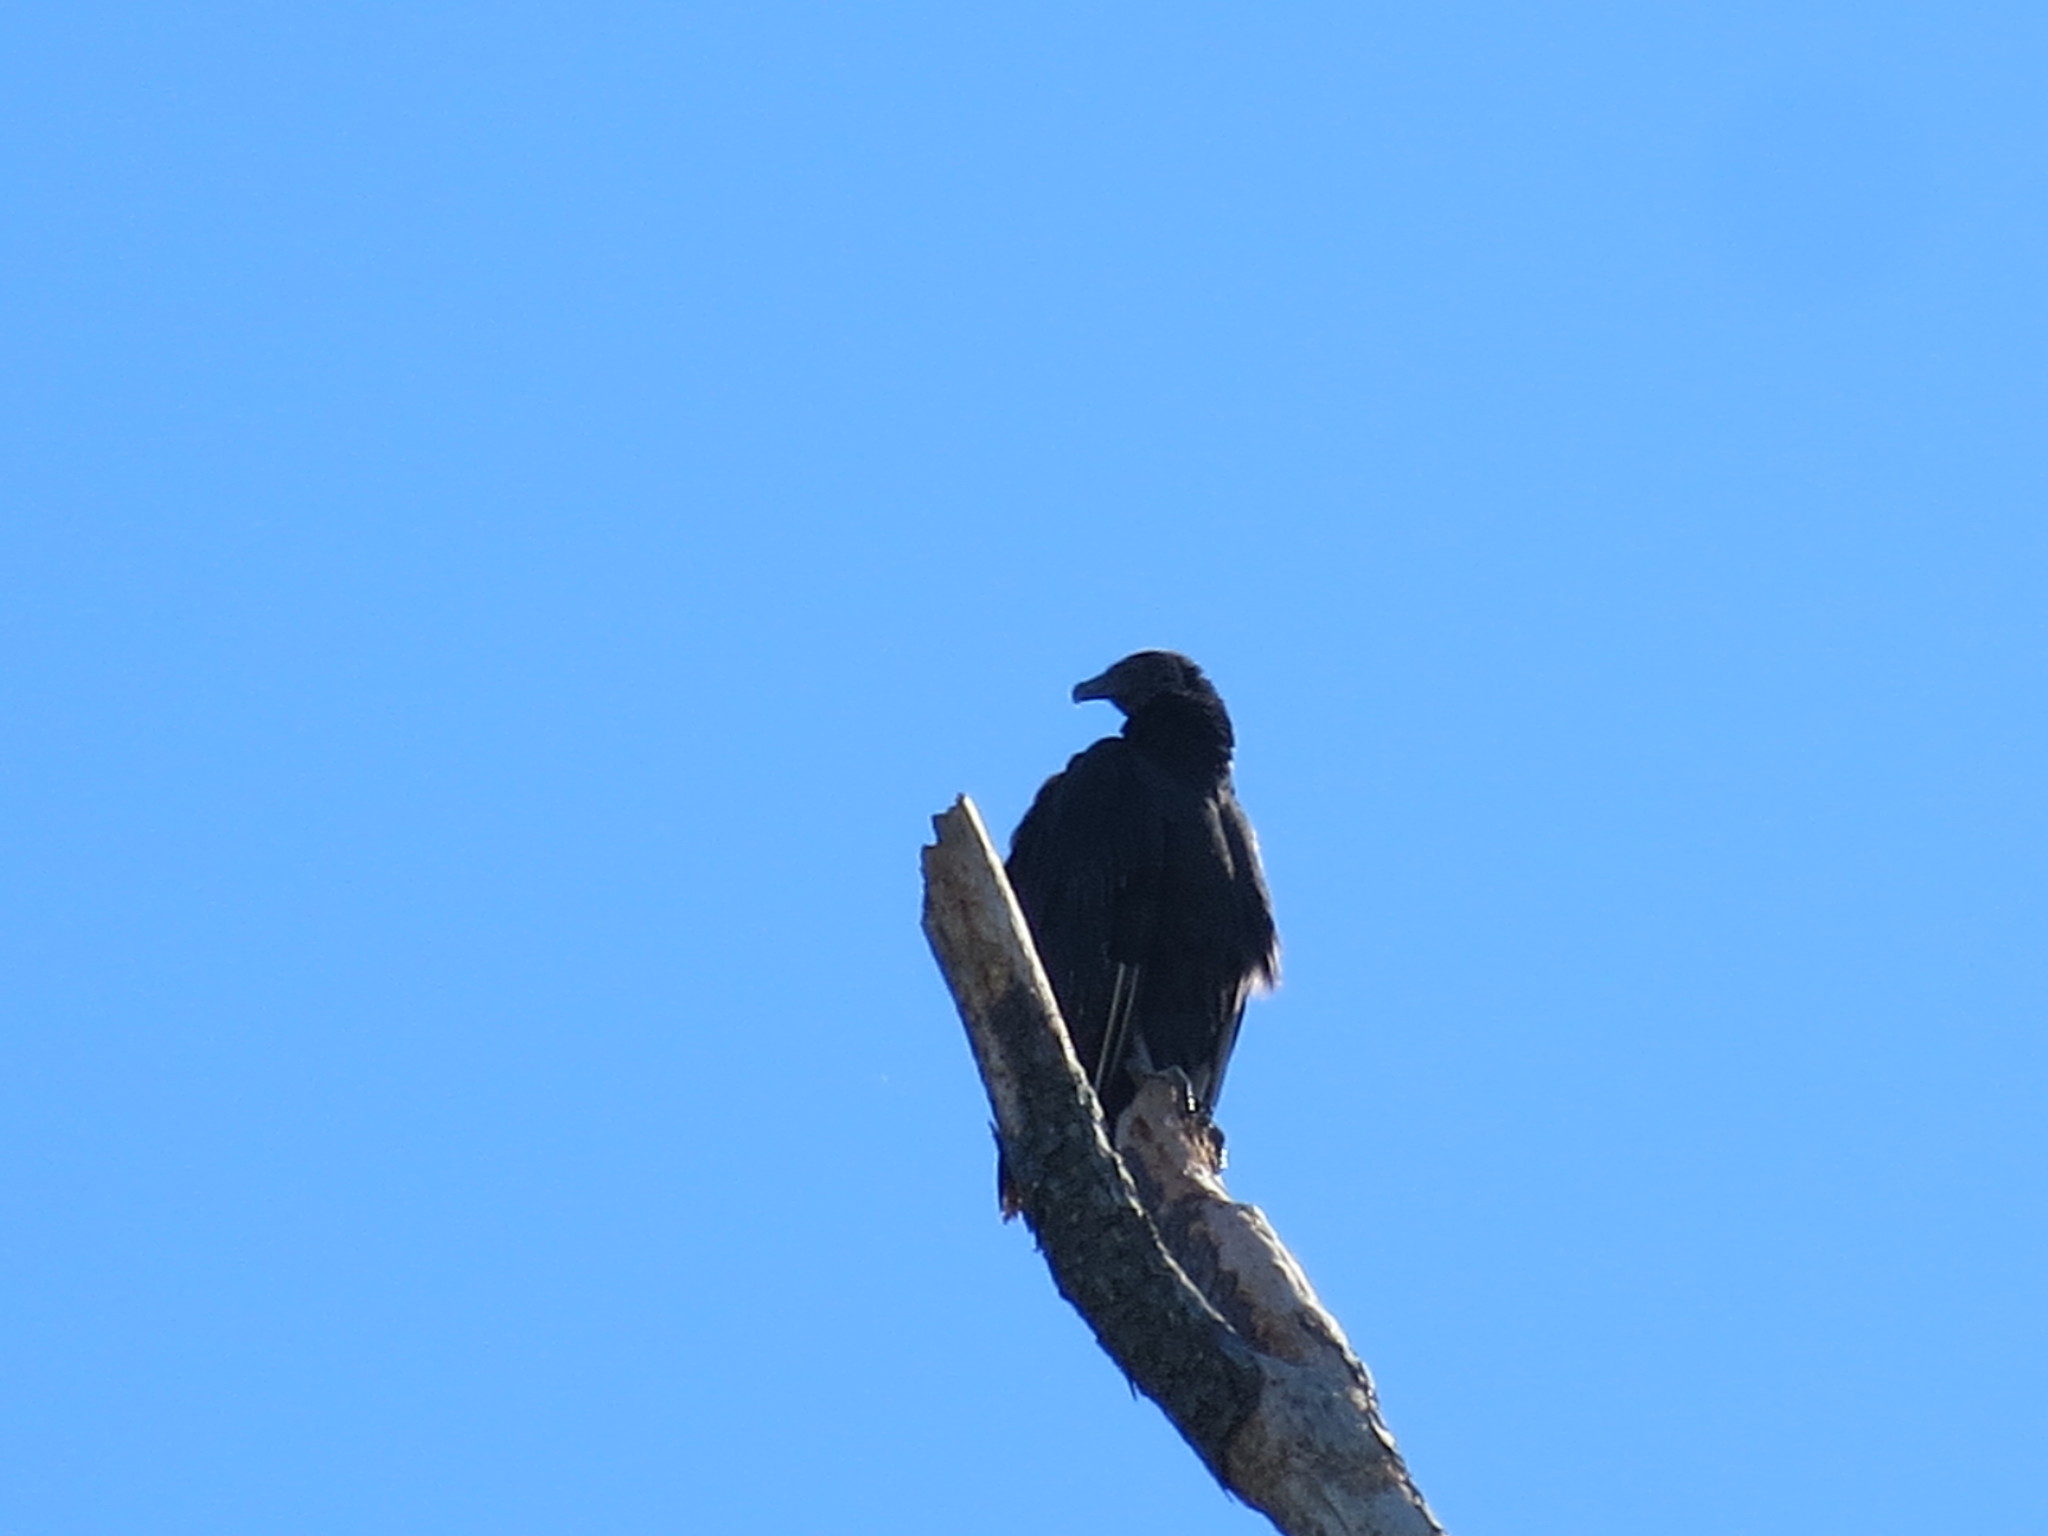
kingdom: Animalia
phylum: Chordata
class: Aves
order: Accipitriformes
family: Cathartidae
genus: Coragyps
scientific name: Coragyps atratus
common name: Black vulture
